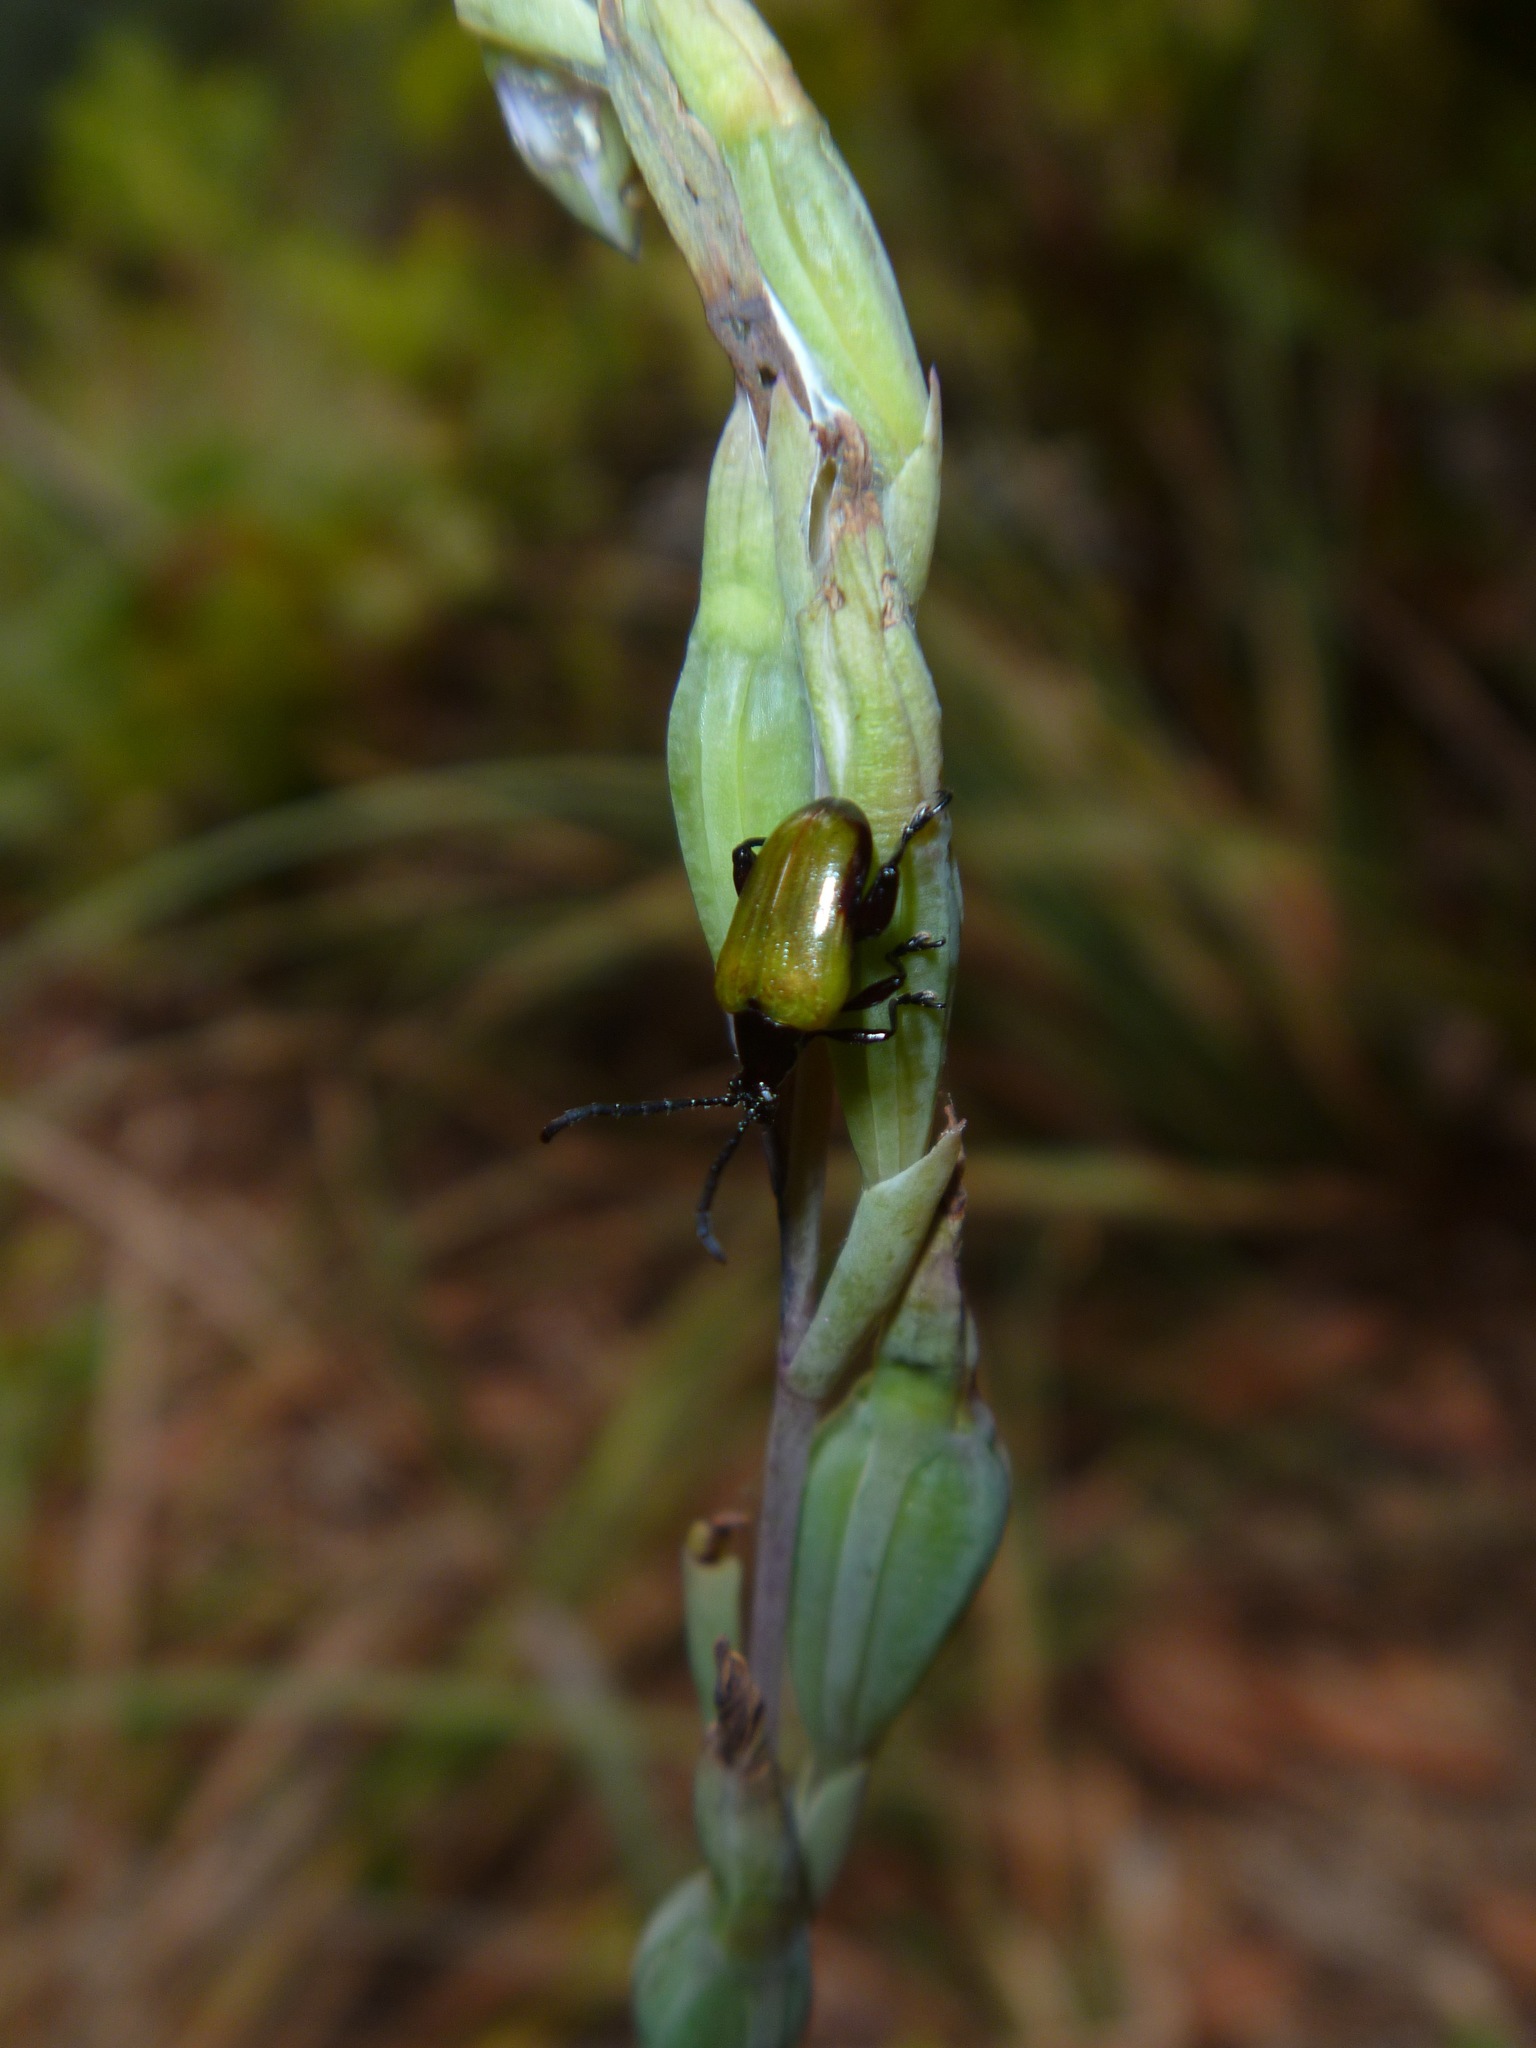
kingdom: Animalia
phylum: Arthropoda
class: Insecta
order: Coleoptera
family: Chrysomelidae
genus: Stethopachys
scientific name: Stethopachys javeti
